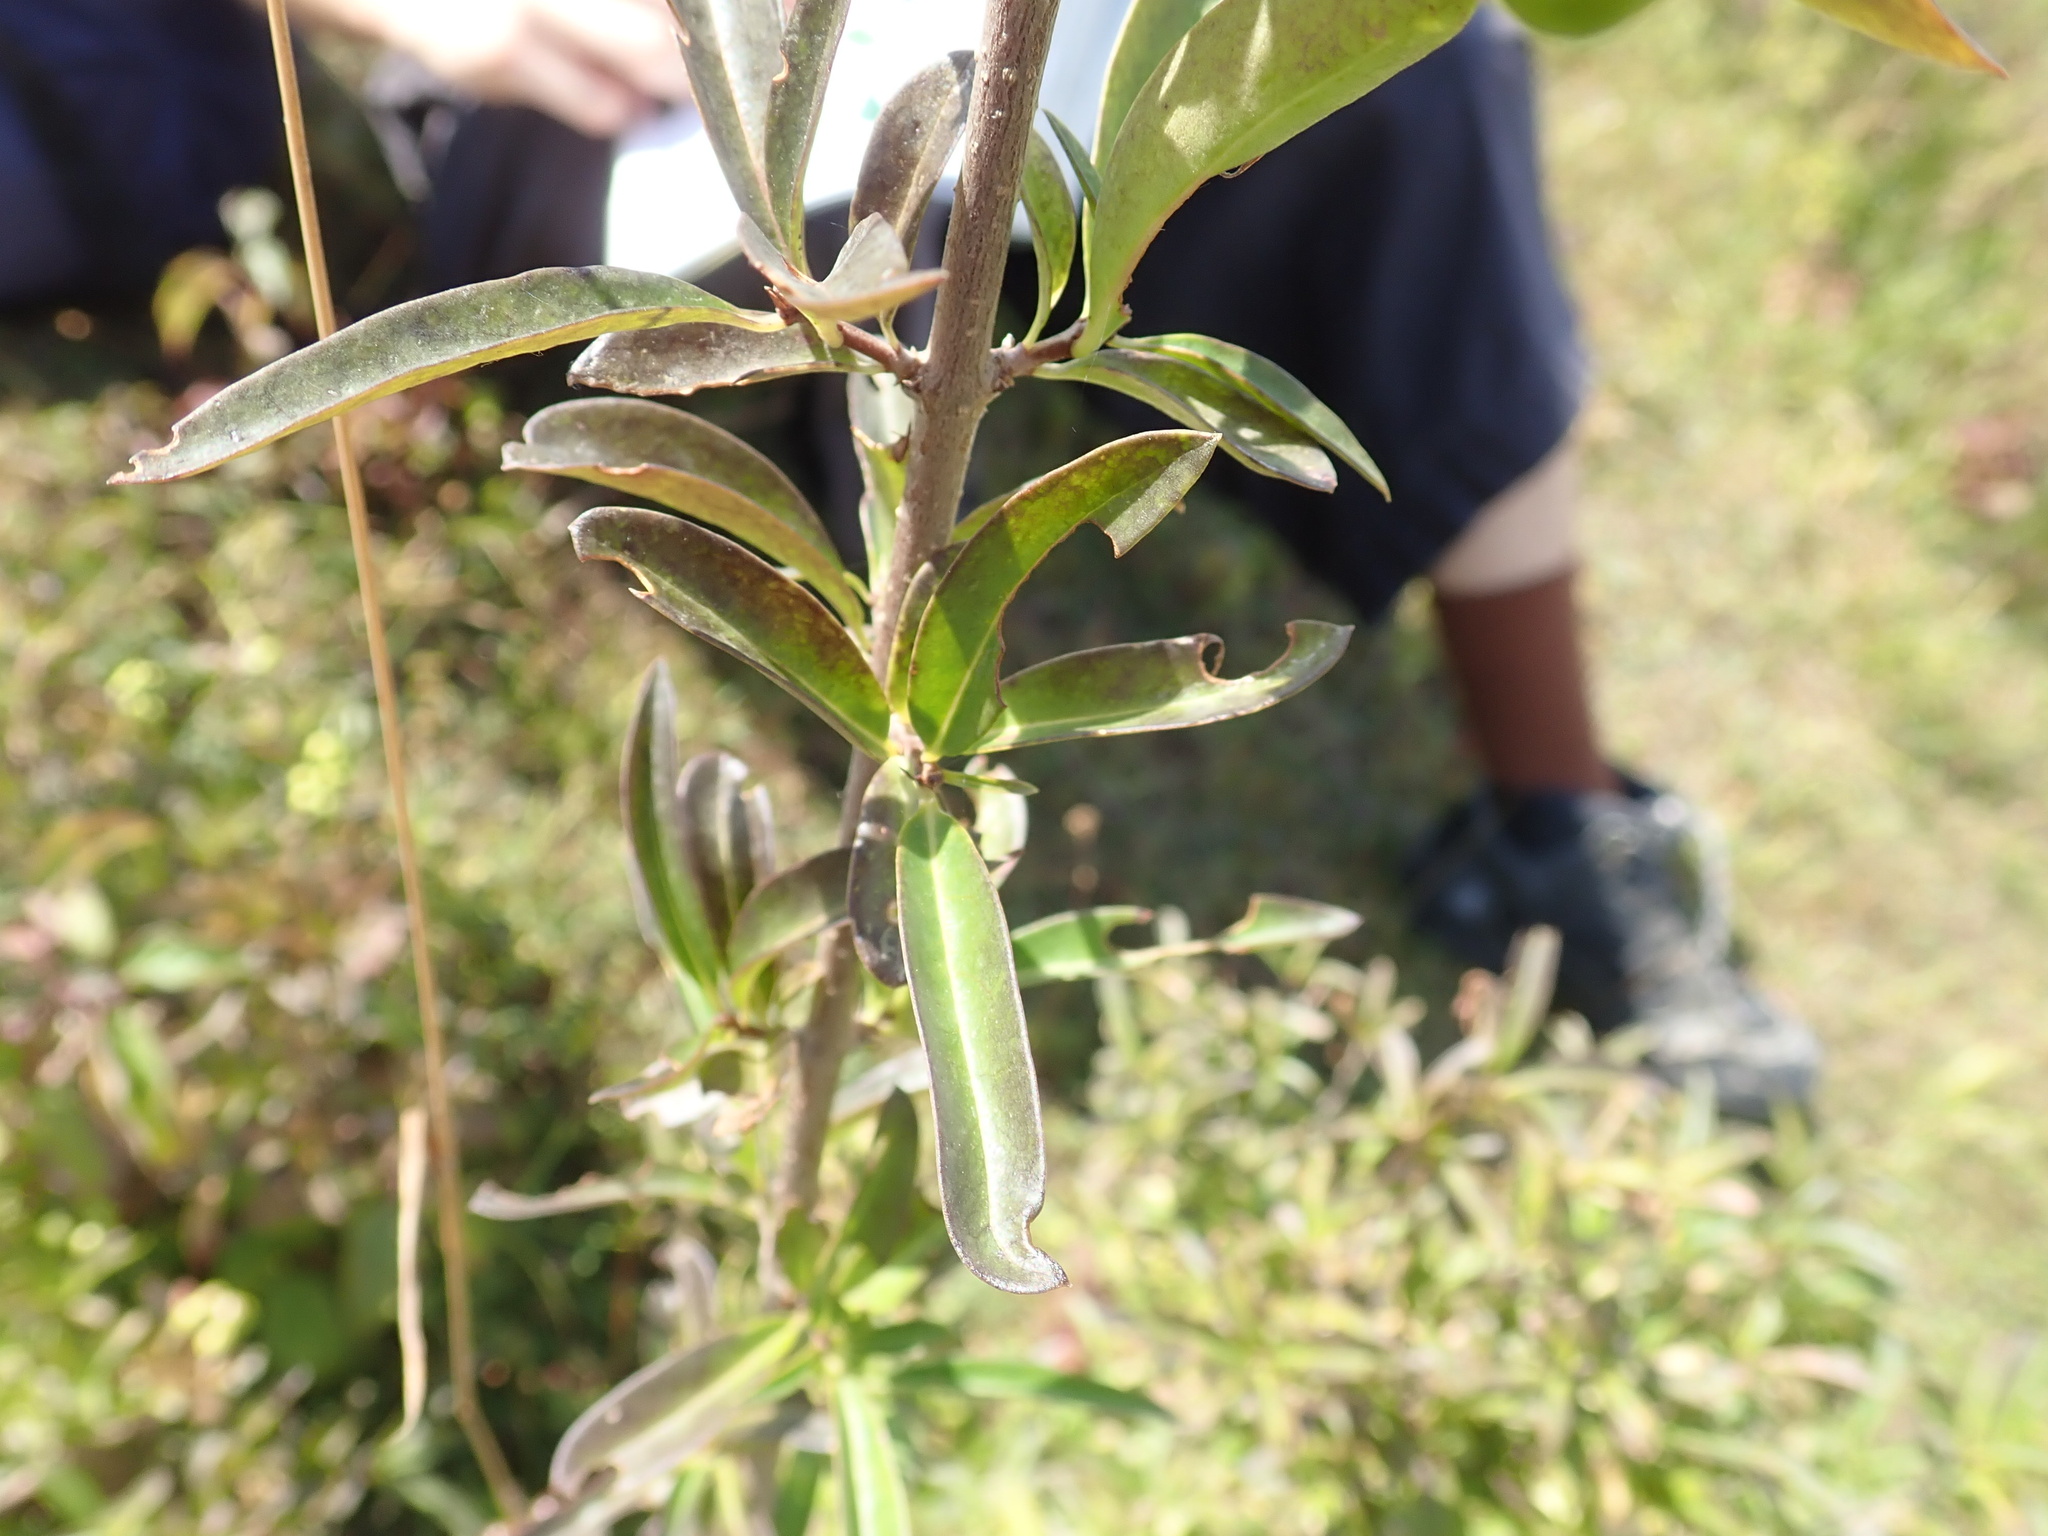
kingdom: Plantae
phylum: Tracheophyta
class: Magnoliopsida
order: Lamiales
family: Oleaceae
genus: Ligustrum
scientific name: Ligustrum vulgare
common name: Wild privet
